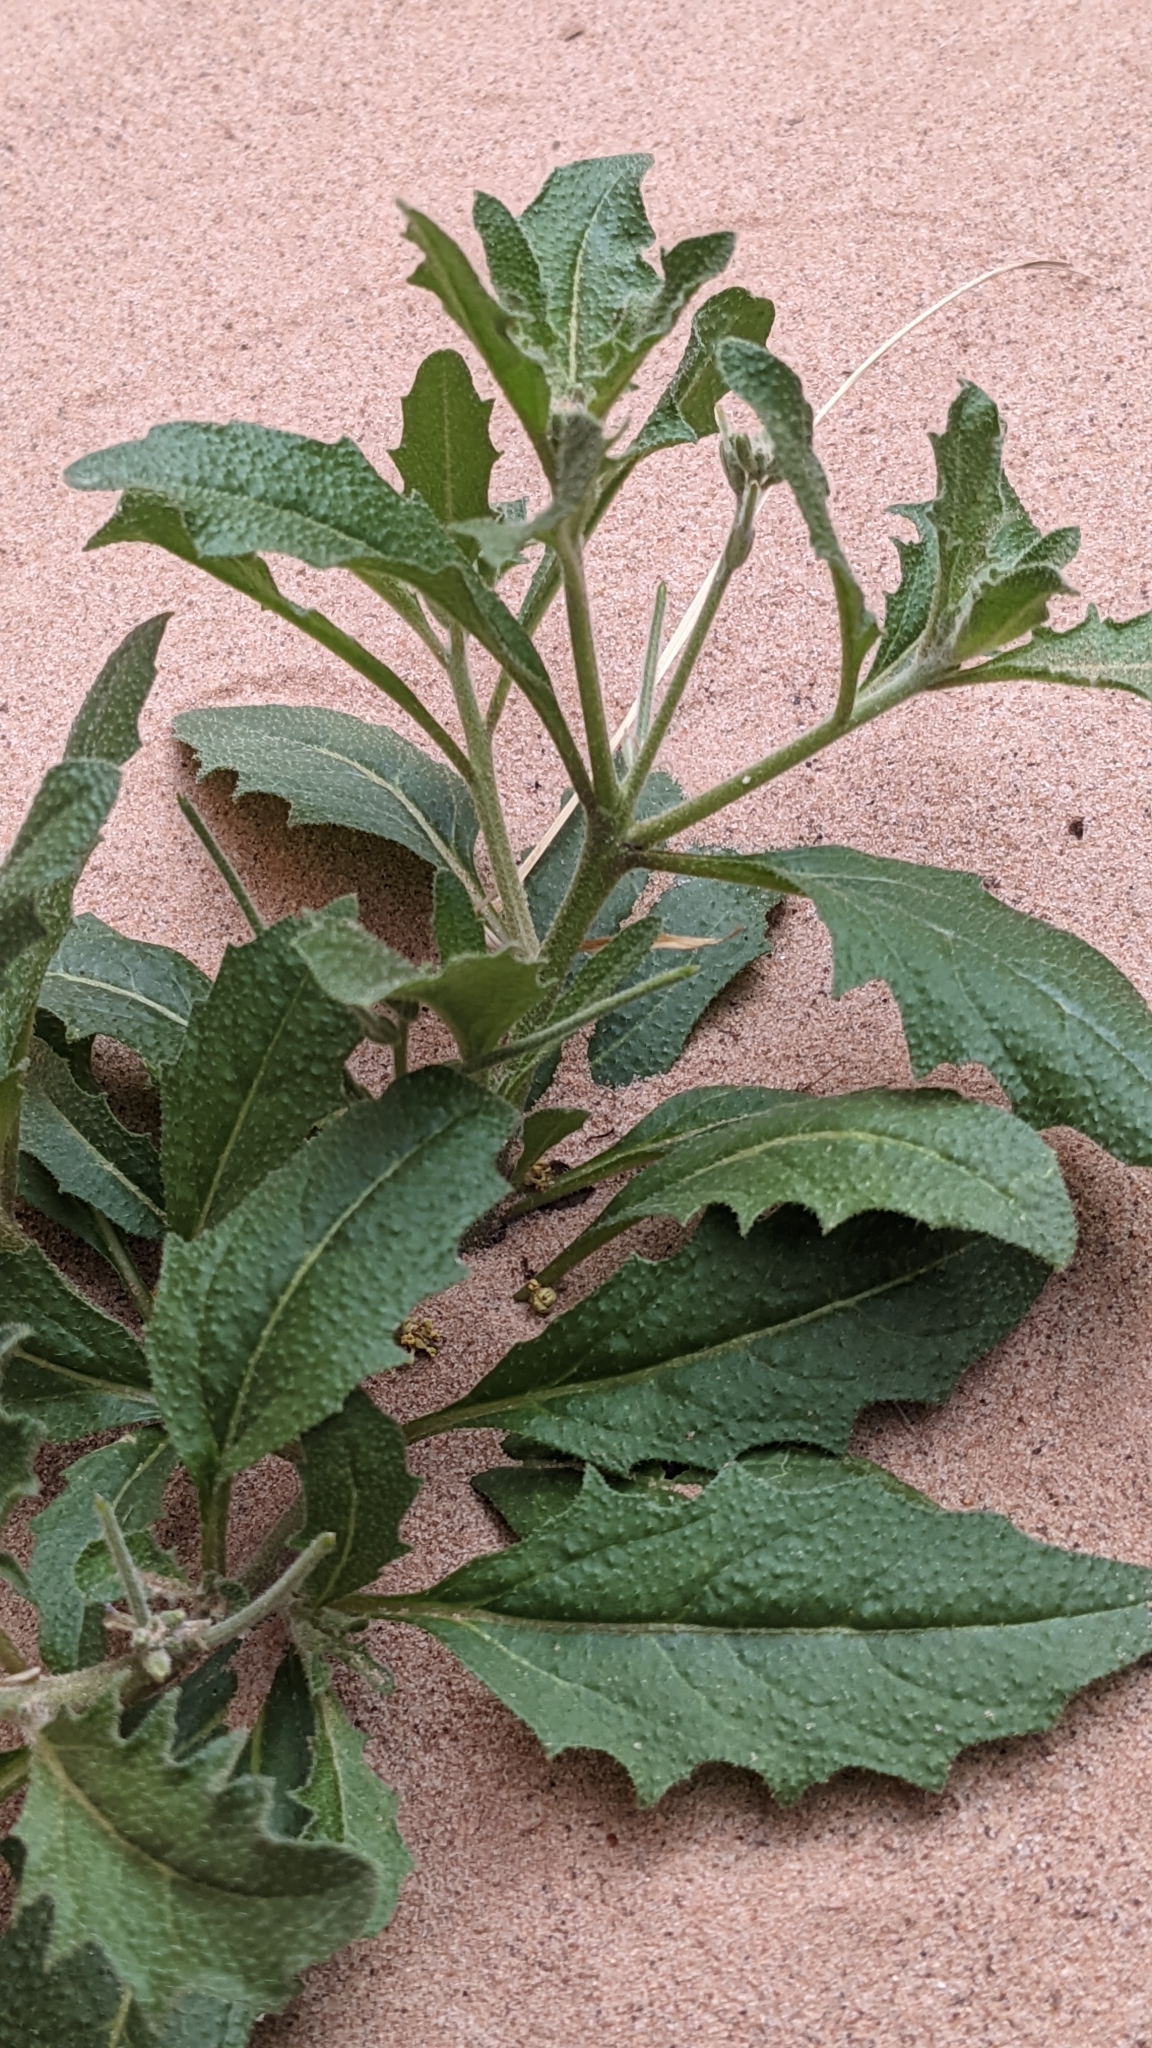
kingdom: Plantae
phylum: Tracheophyta
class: Magnoliopsida
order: Brassicales
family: Brassicaceae
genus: Strigosella
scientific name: Strigosella africana
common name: African mustard
